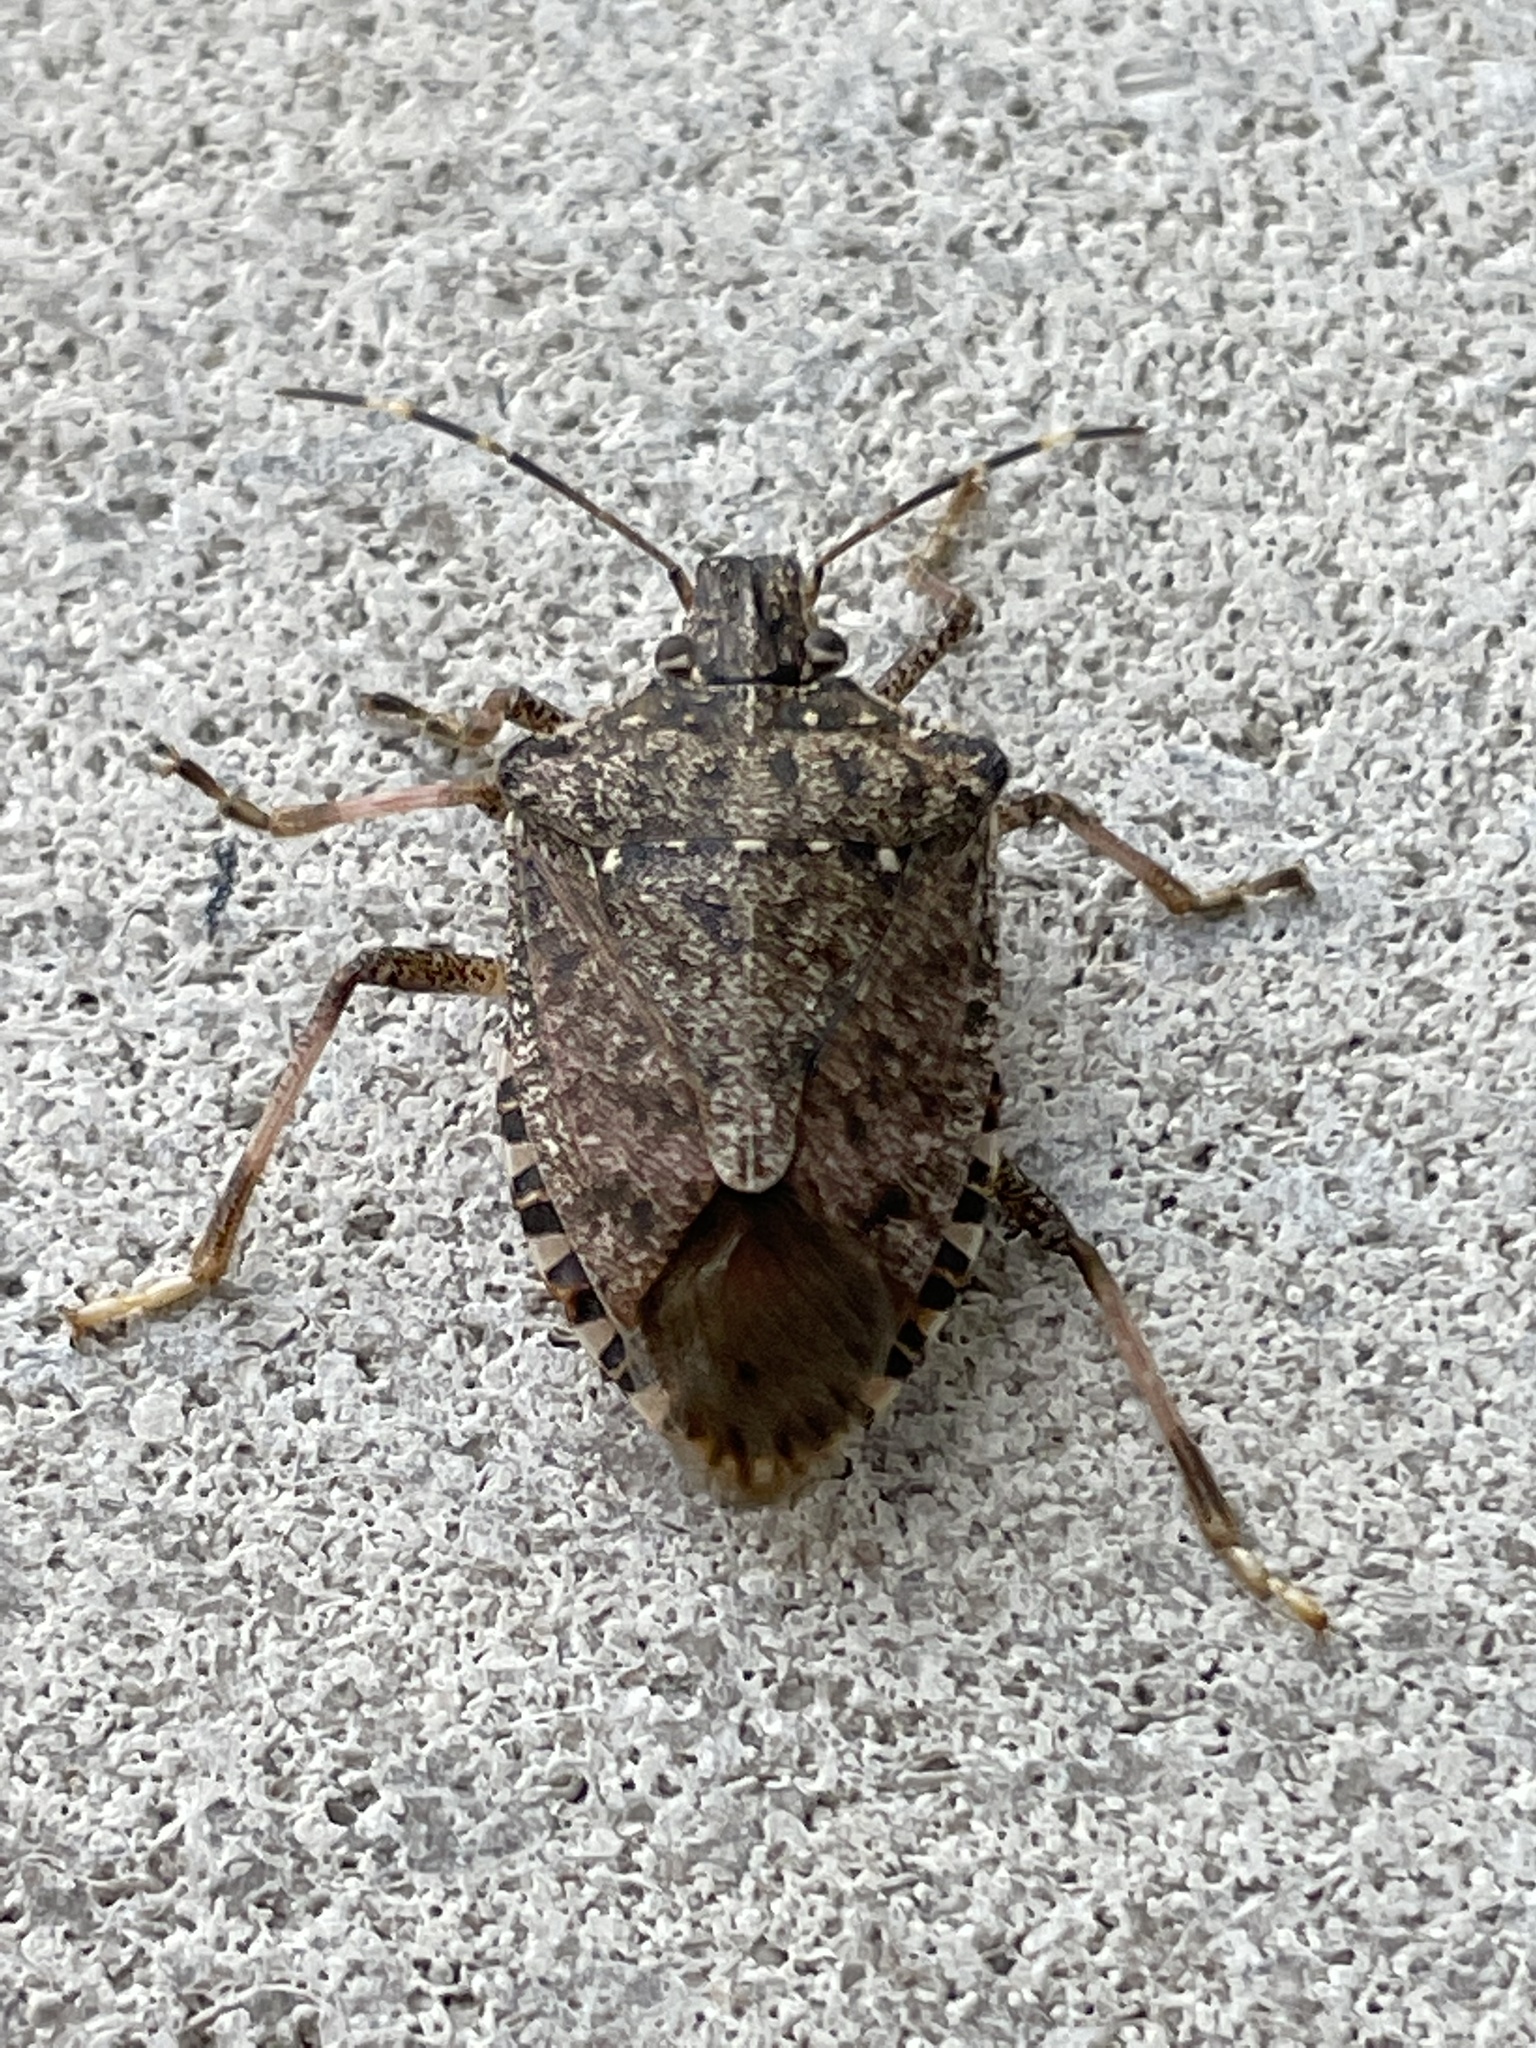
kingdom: Animalia
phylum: Arthropoda
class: Insecta
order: Hemiptera
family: Pentatomidae
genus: Halyomorpha
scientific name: Halyomorpha halys
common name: Brown marmorated stink bug
